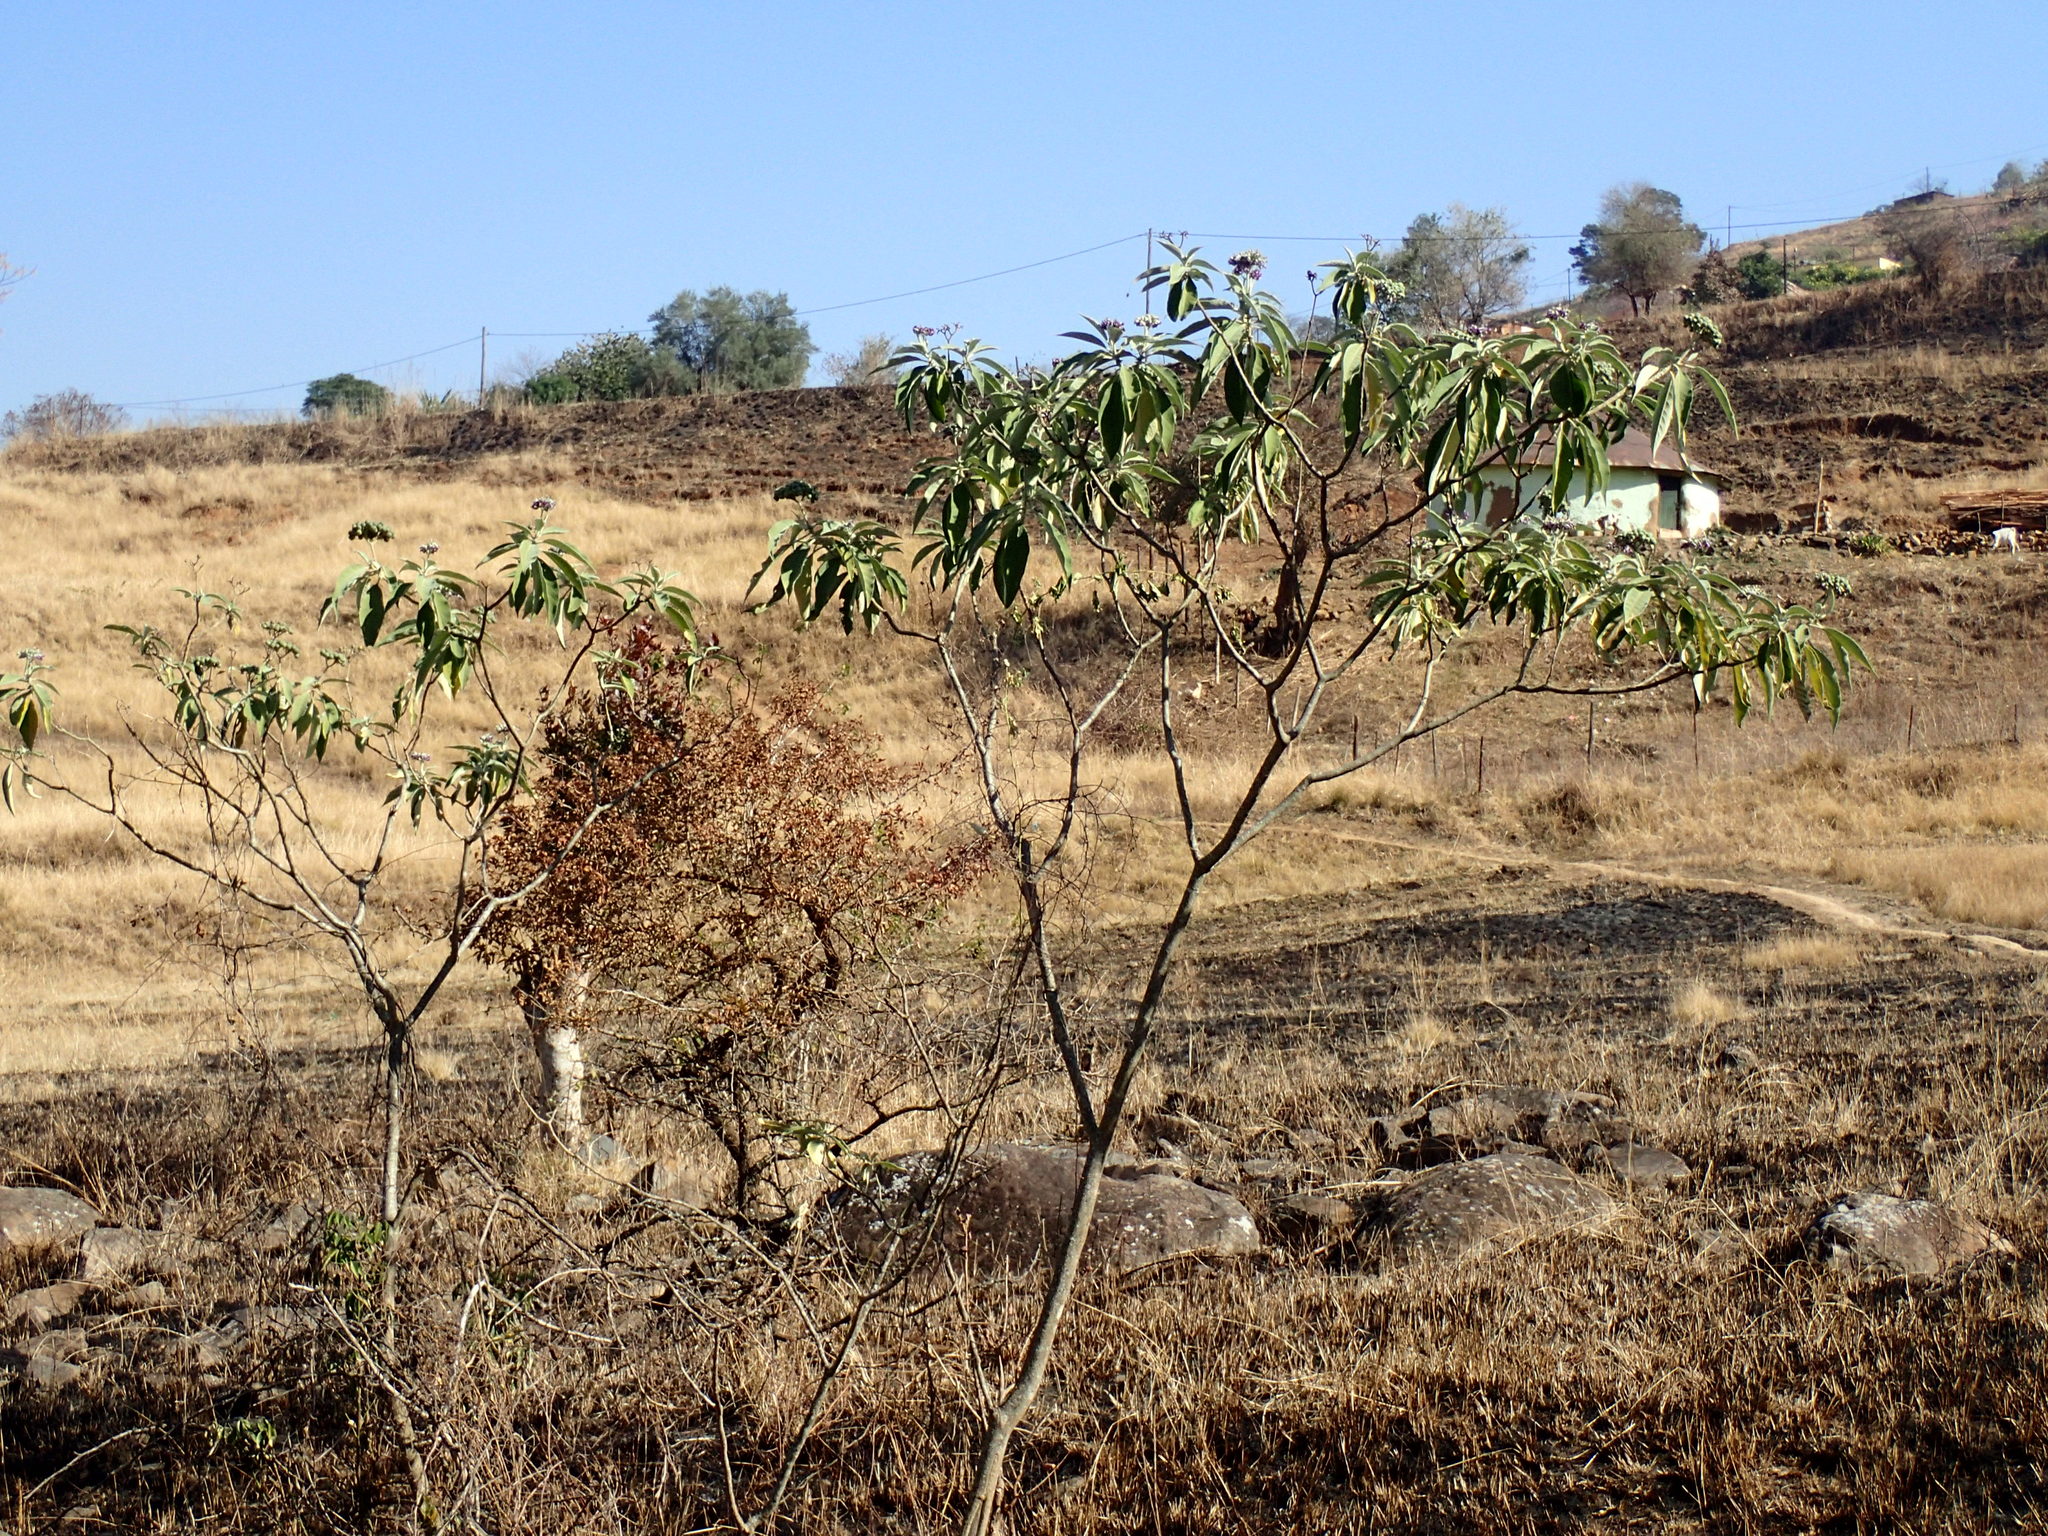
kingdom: Plantae
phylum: Tracheophyta
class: Magnoliopsida
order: Solanales
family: Solanaceae
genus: Solanum
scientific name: Solanum mauritianum
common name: Earleaf nightshade
